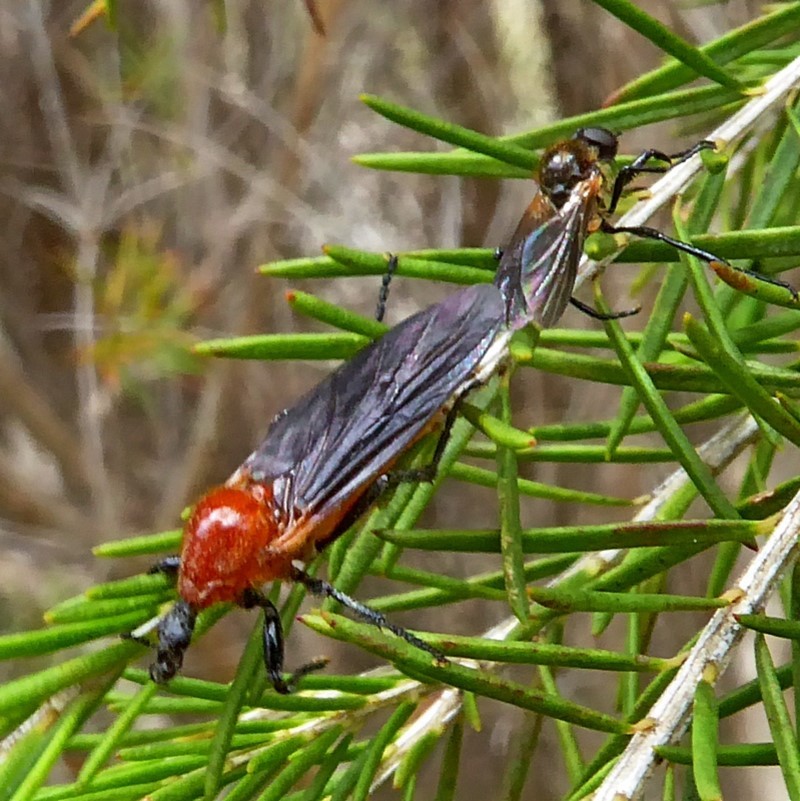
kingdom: Animalia
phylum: Arthropoda
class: Insecta
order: Diptera
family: Bibionidae
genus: Bibio
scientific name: Bibio imitator
